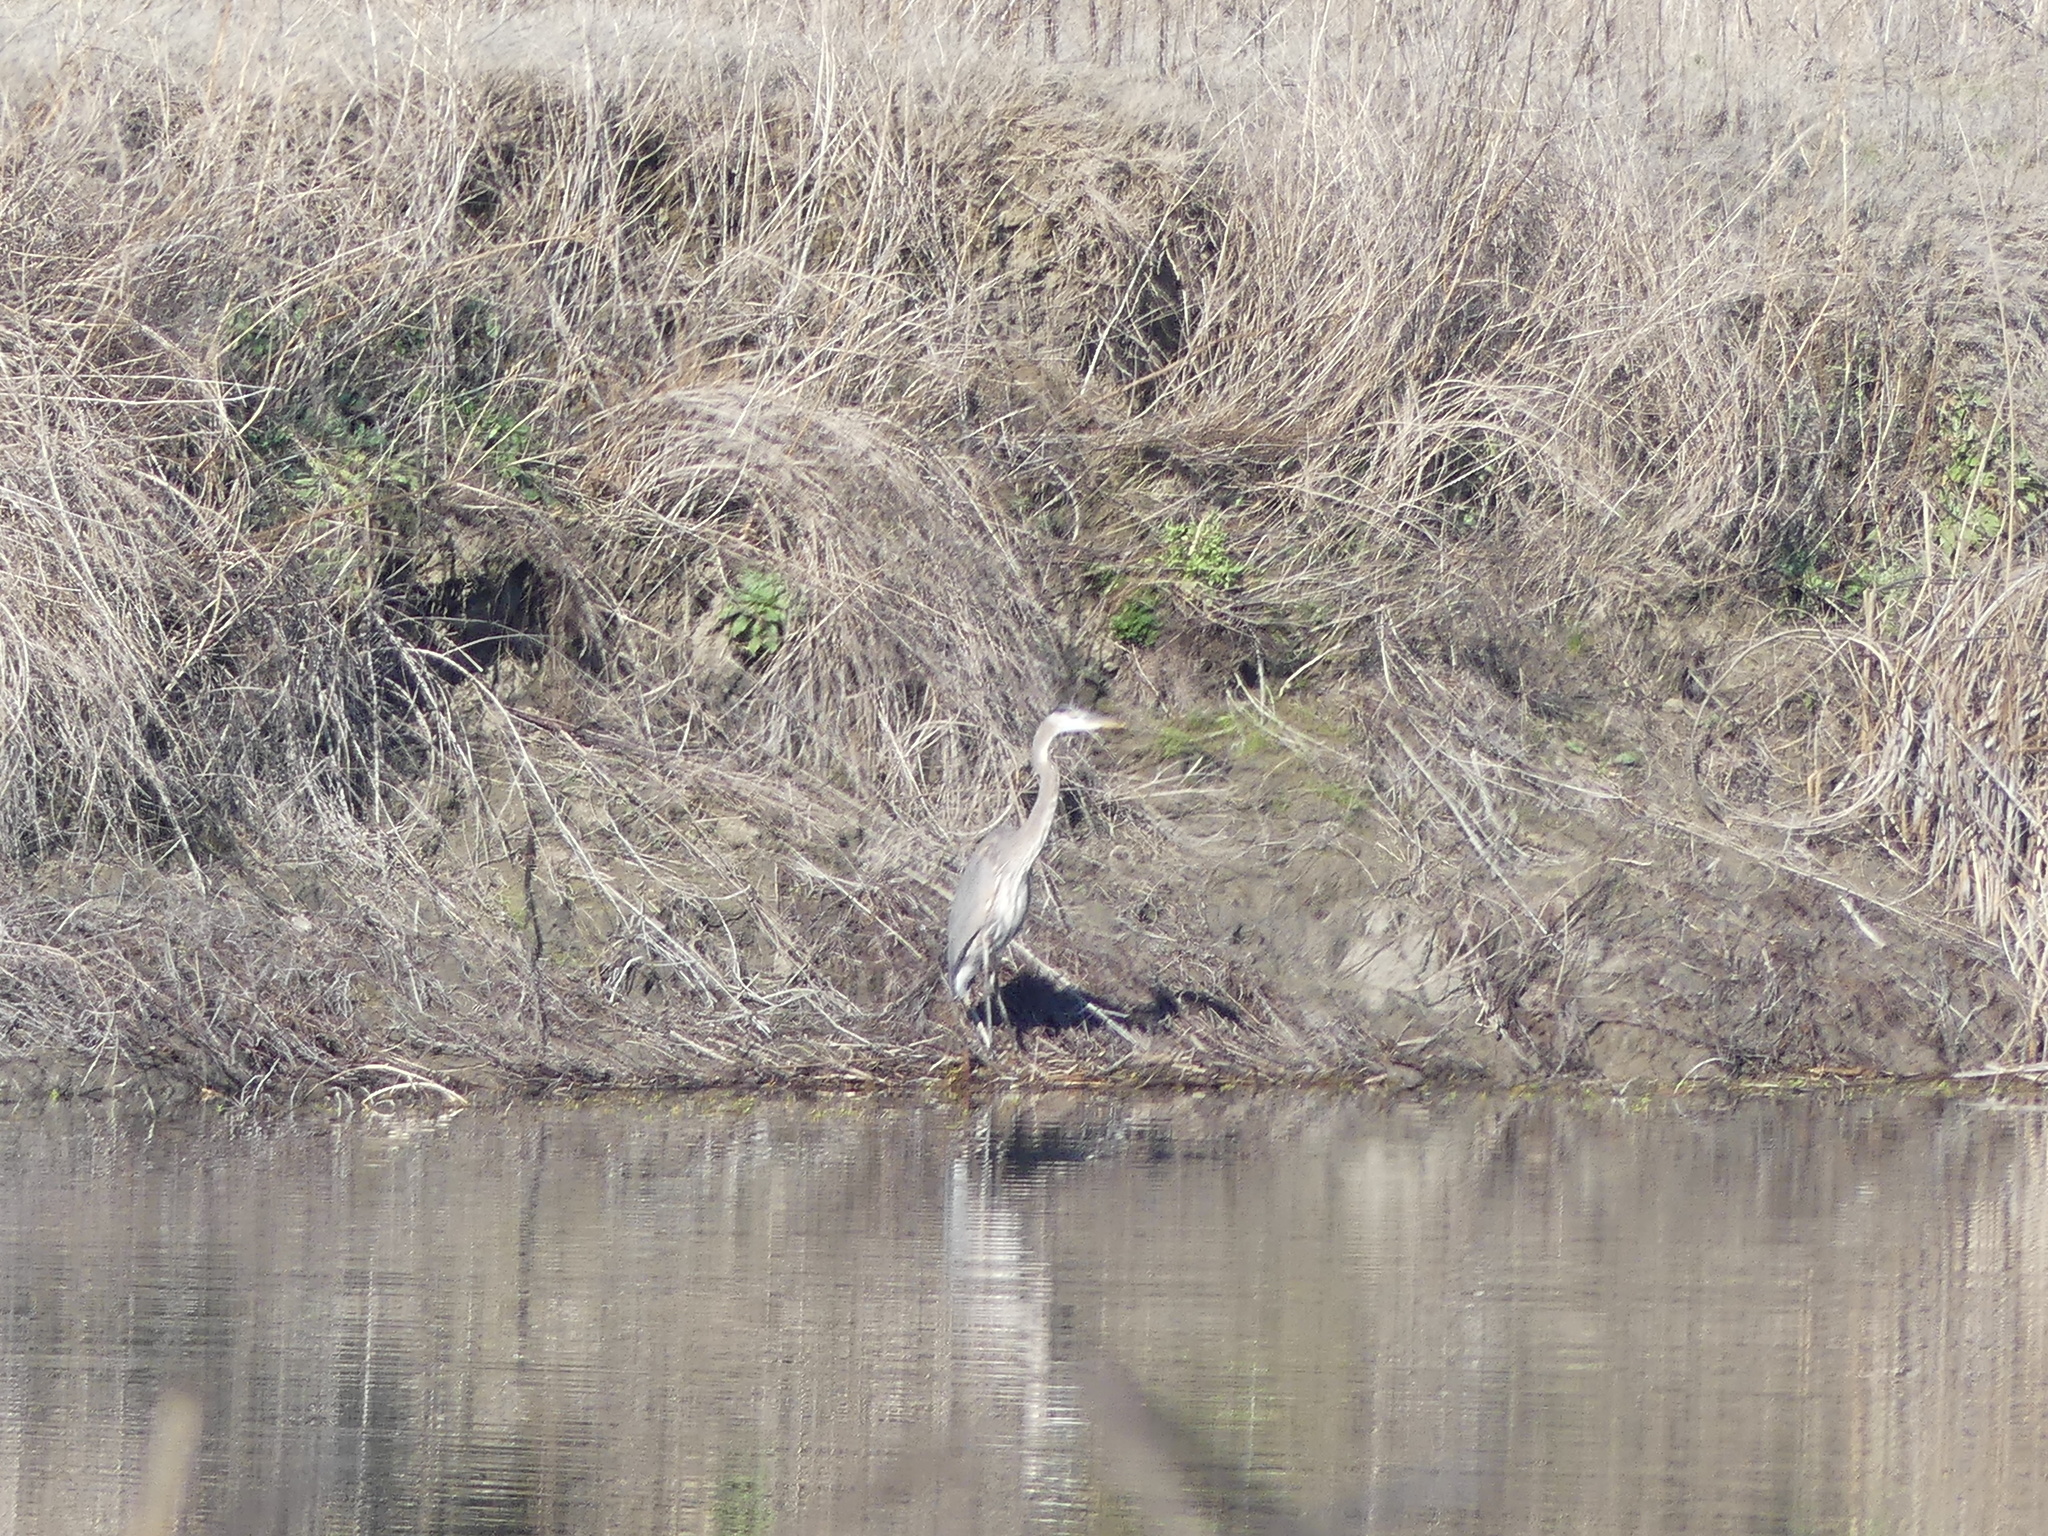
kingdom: Animalia
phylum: Chordata
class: Aves
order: Pelecaniformes
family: Ardeidae
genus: Ardea
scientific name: Ardea herodias
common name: Great blue heron
